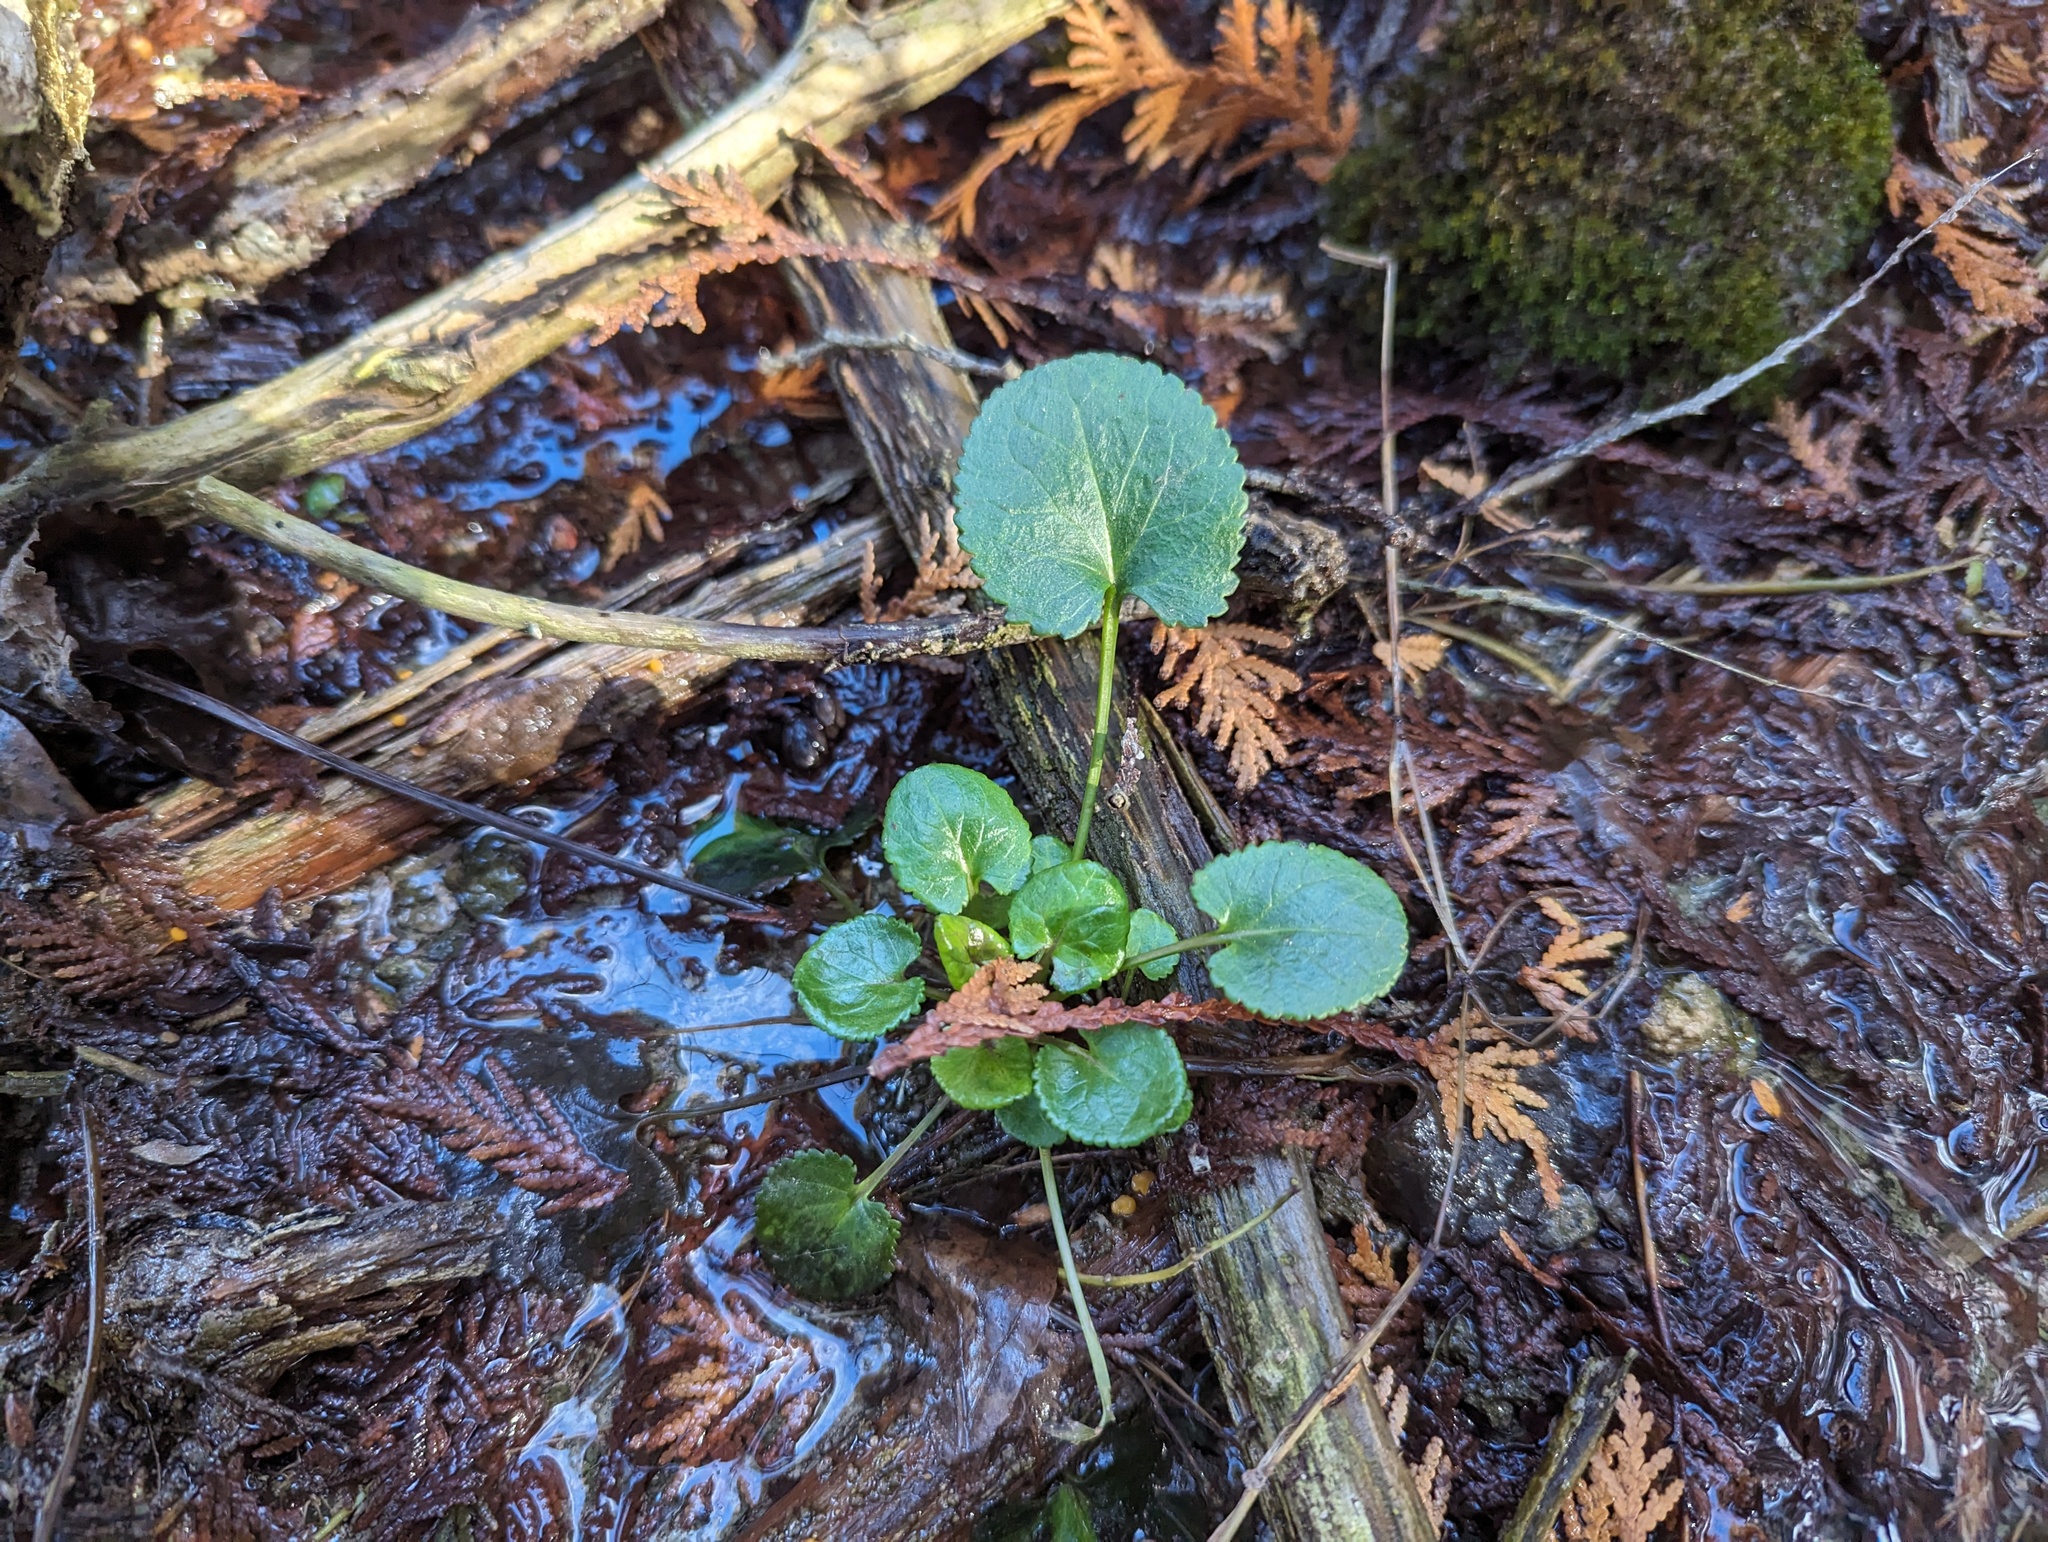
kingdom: Plantae
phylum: Tracheophyta
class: Magnoliopsida
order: Asterales
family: Asteraceae
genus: Packera
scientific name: Packera aurea
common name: Golden groundsel
